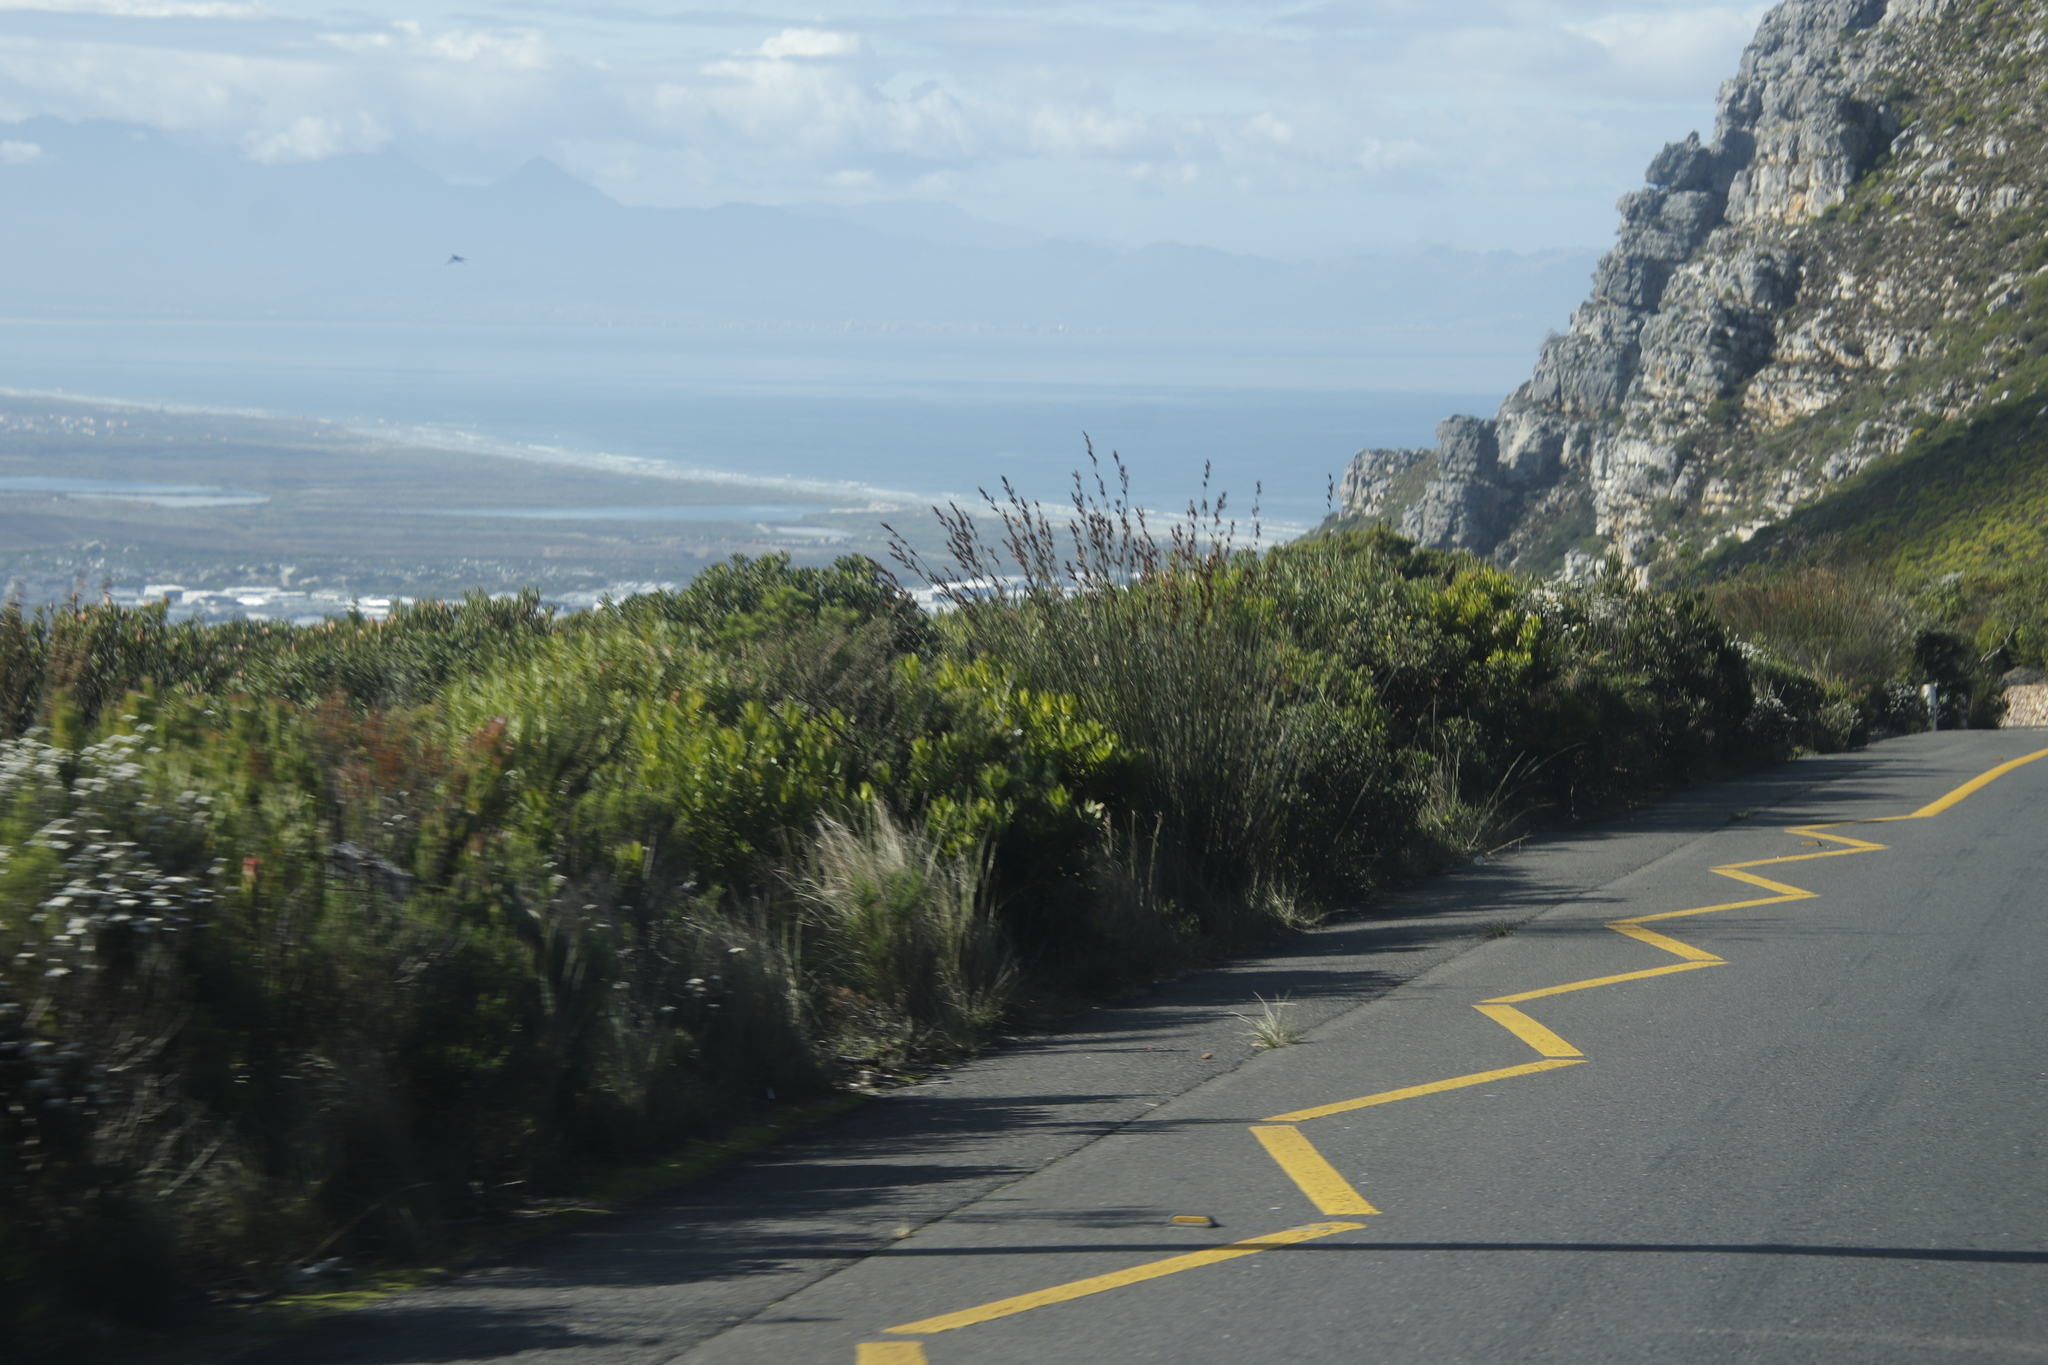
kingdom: Plantae
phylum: Tracheophyta
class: Magnoliopsida
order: Proteales
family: Proteaceae
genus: Leucadendron
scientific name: Leucadendron laureolum
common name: Golden sunshinebush
